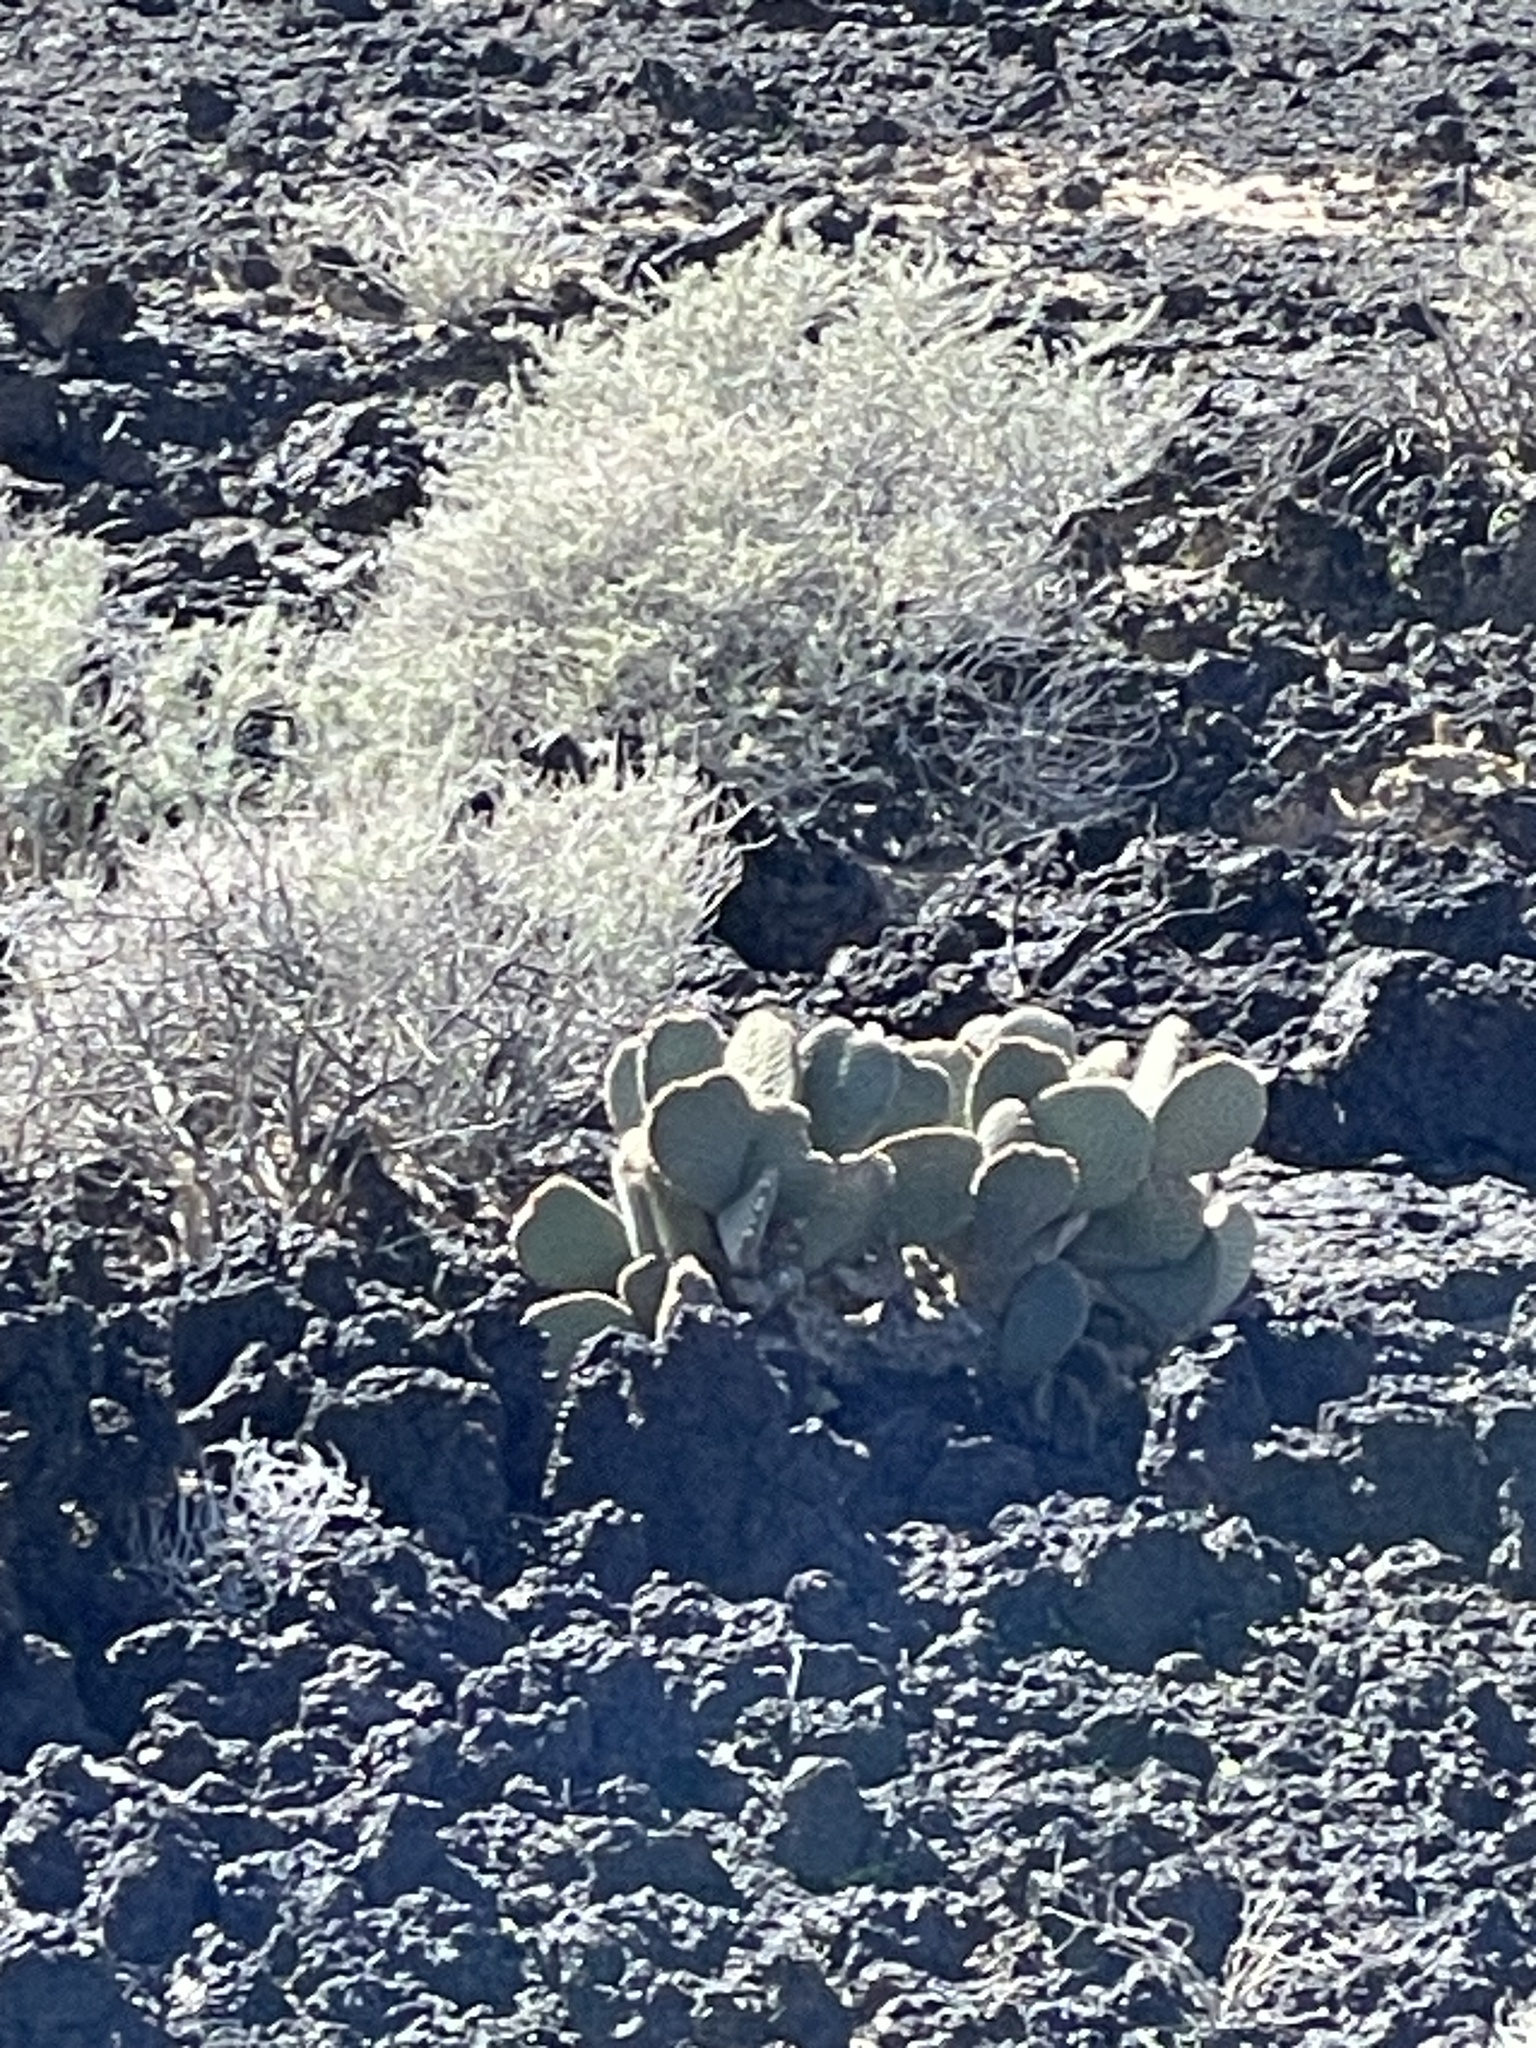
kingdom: Plantae
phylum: Tracheophyta
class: Magnoliopsida
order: Caryophyllales
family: Cactaceae
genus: Opuntia
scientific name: Opuntia basilaris
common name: Beavertail prickly-pear
